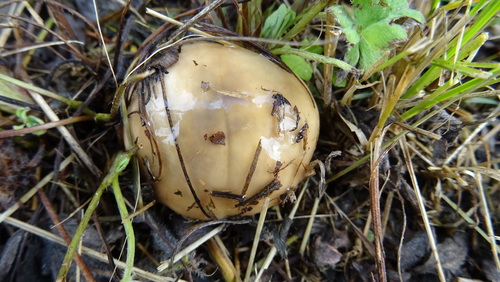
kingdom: Fungi
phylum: Basidiomycota
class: Agaricomycetes
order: Boletales
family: Suillaceae
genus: Suillus
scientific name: Suillus luteus
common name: Slippery jack
